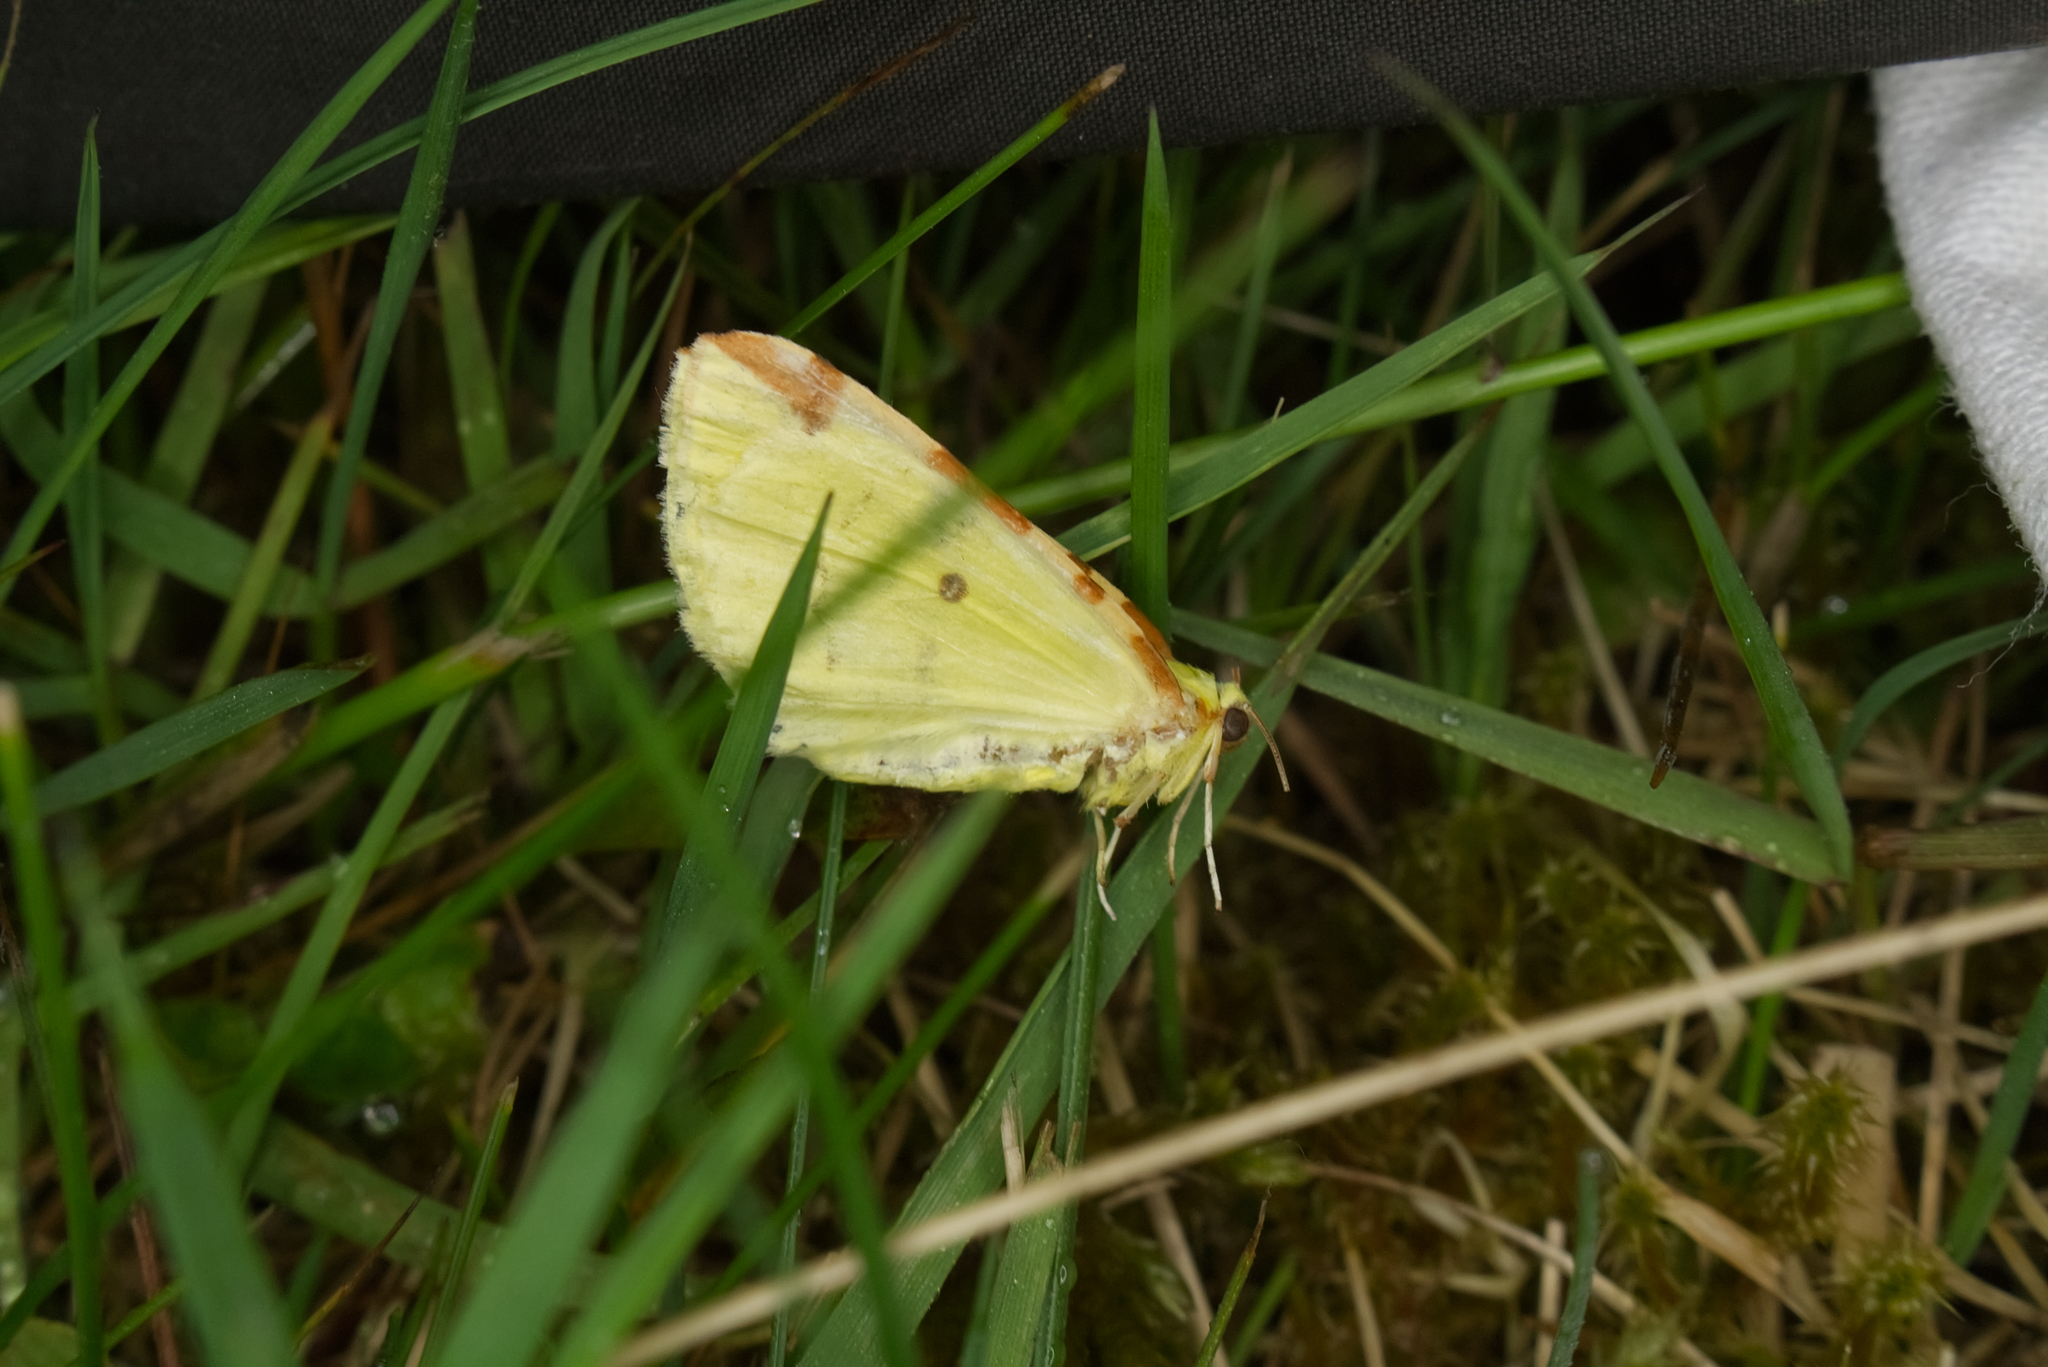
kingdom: Animalia
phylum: Arthropoda
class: Insecta
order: Lepidoptera
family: Geometridae
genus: Opisthograptis
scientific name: Opisthograptis luteolata
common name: Brimstone moth
